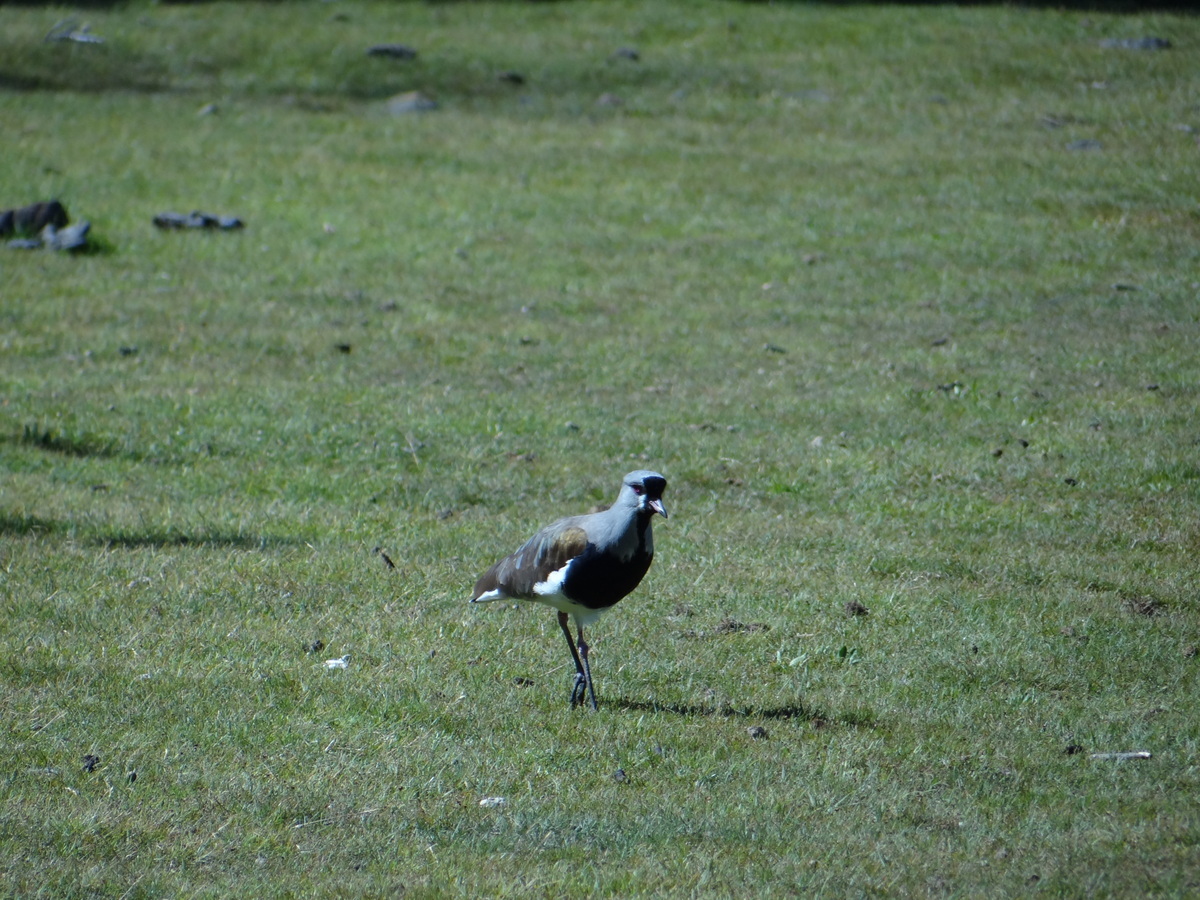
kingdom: Animalia
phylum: Chordata
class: Aves
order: Charadriiformes
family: Charadriidae
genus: Vanellus
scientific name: Vanellus chilensis
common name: Southern lapwing
